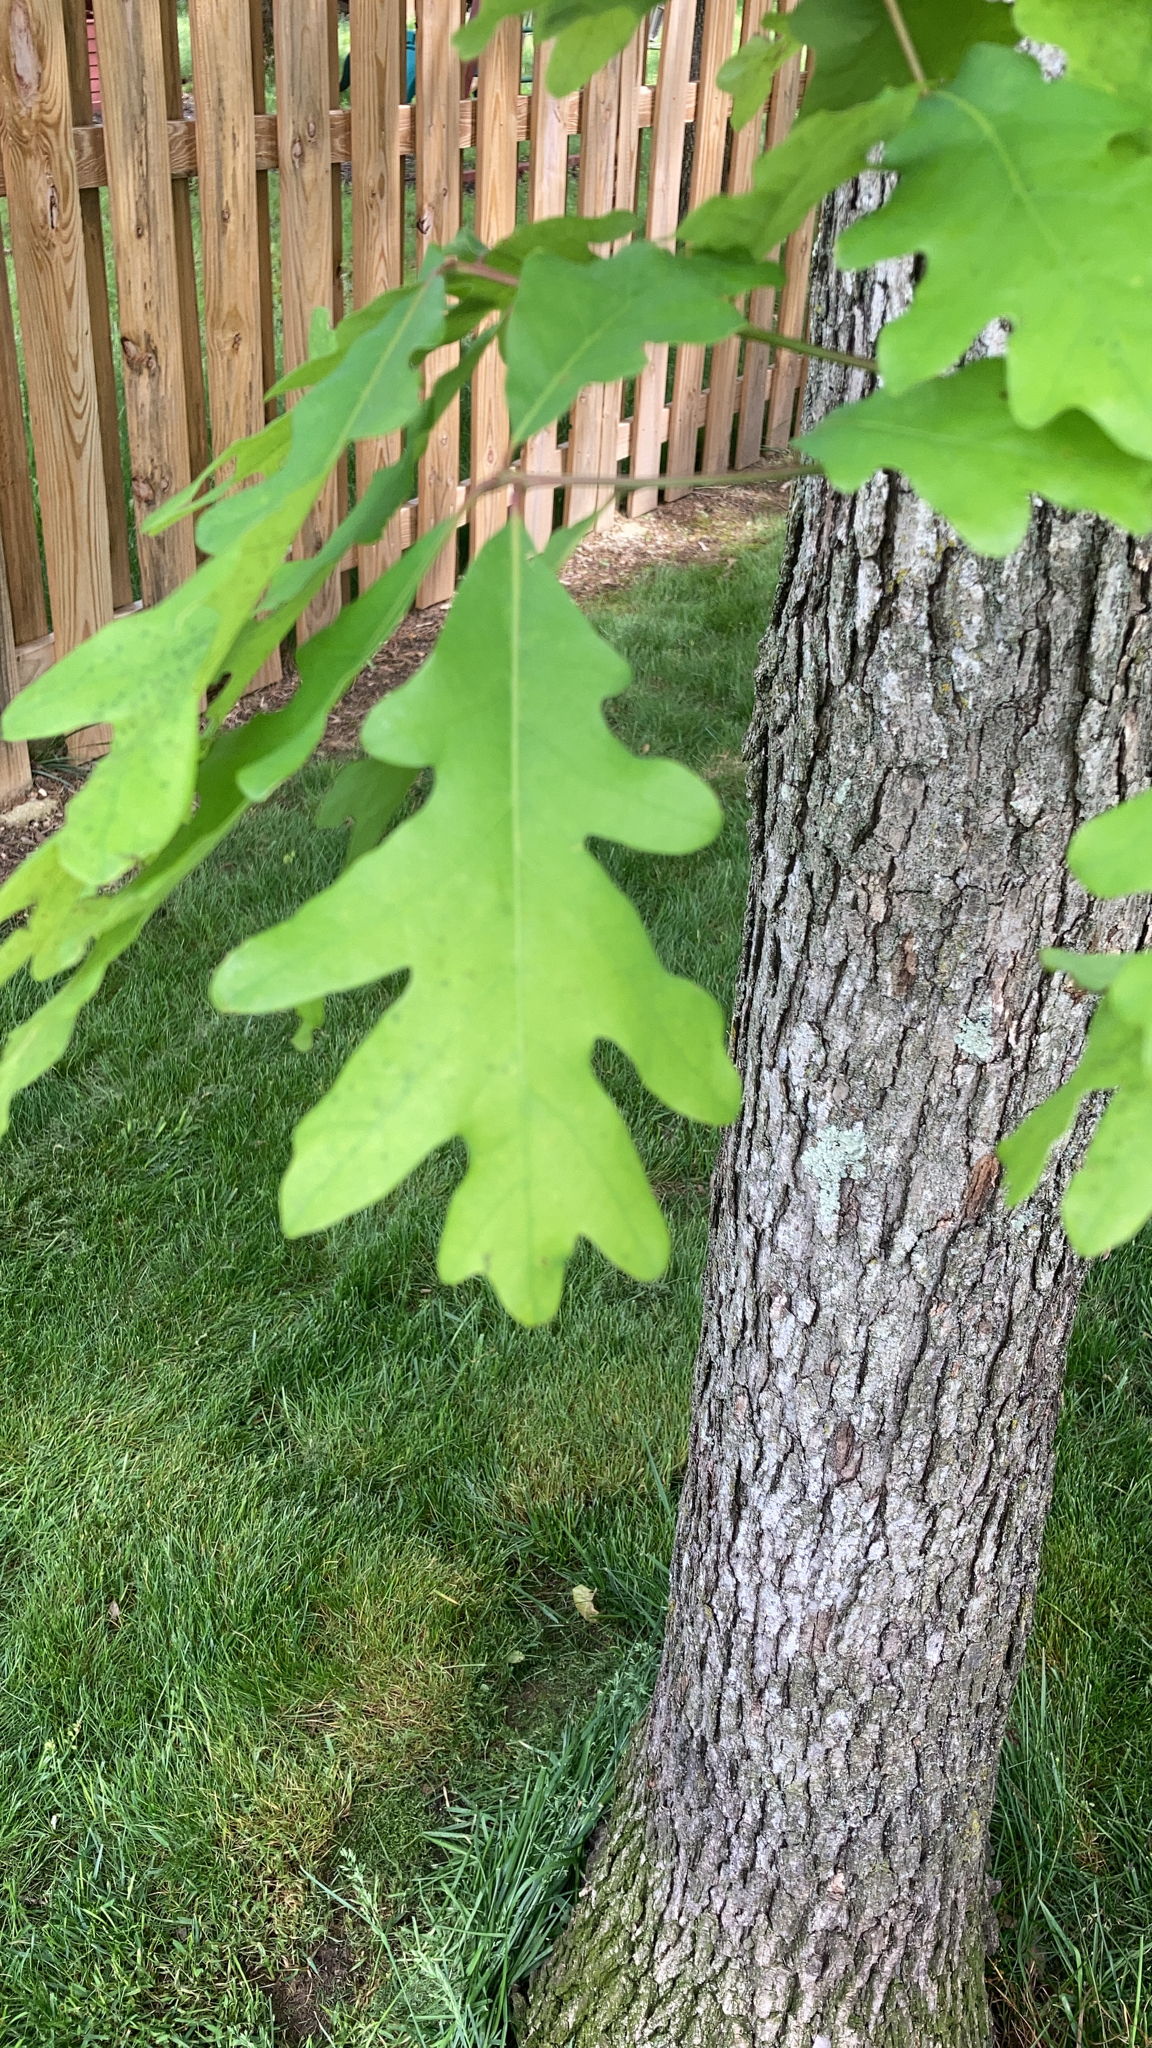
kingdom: Plantae
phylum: Tracheophyta
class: Magnoliopsida
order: Fagales
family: Fagaceae
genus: Quercus
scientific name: Quercus alba
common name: White oak
